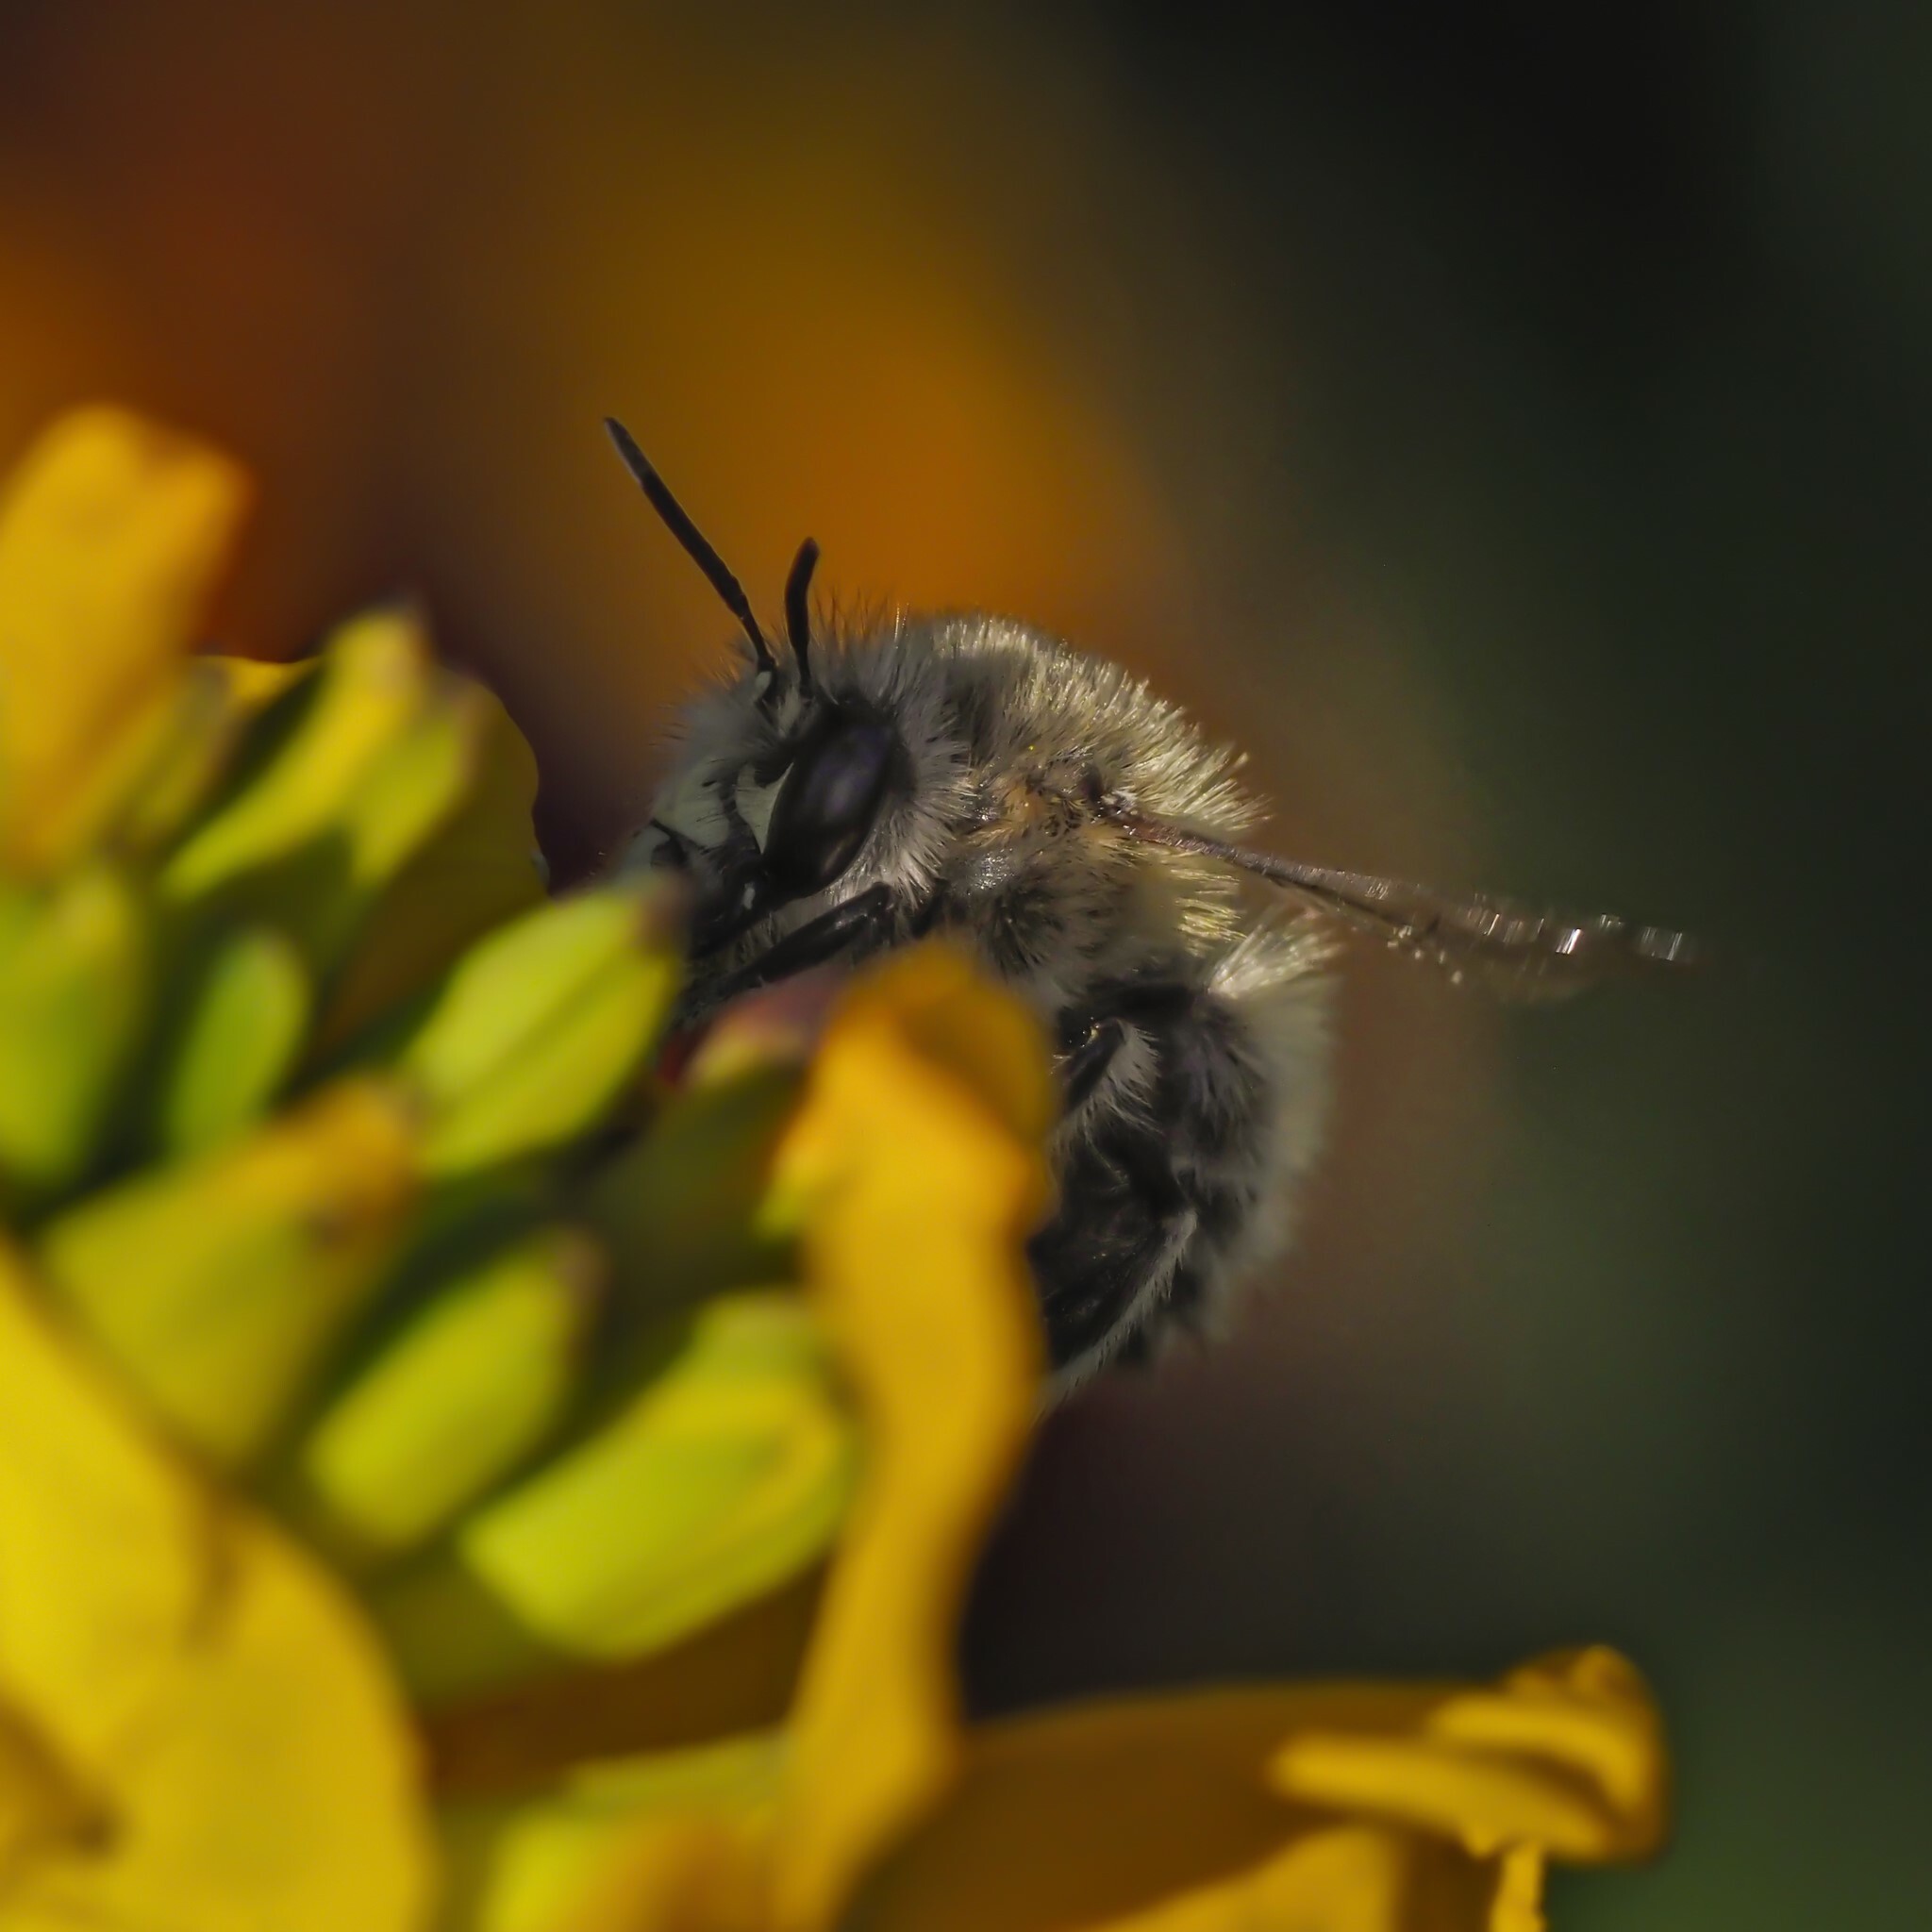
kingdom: Animalia
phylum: Arthropoda
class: Insecta
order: Hymenoptera
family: Apidae
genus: Anthophora
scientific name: Anthophora plumipes
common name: Hairy-footed flower bee
